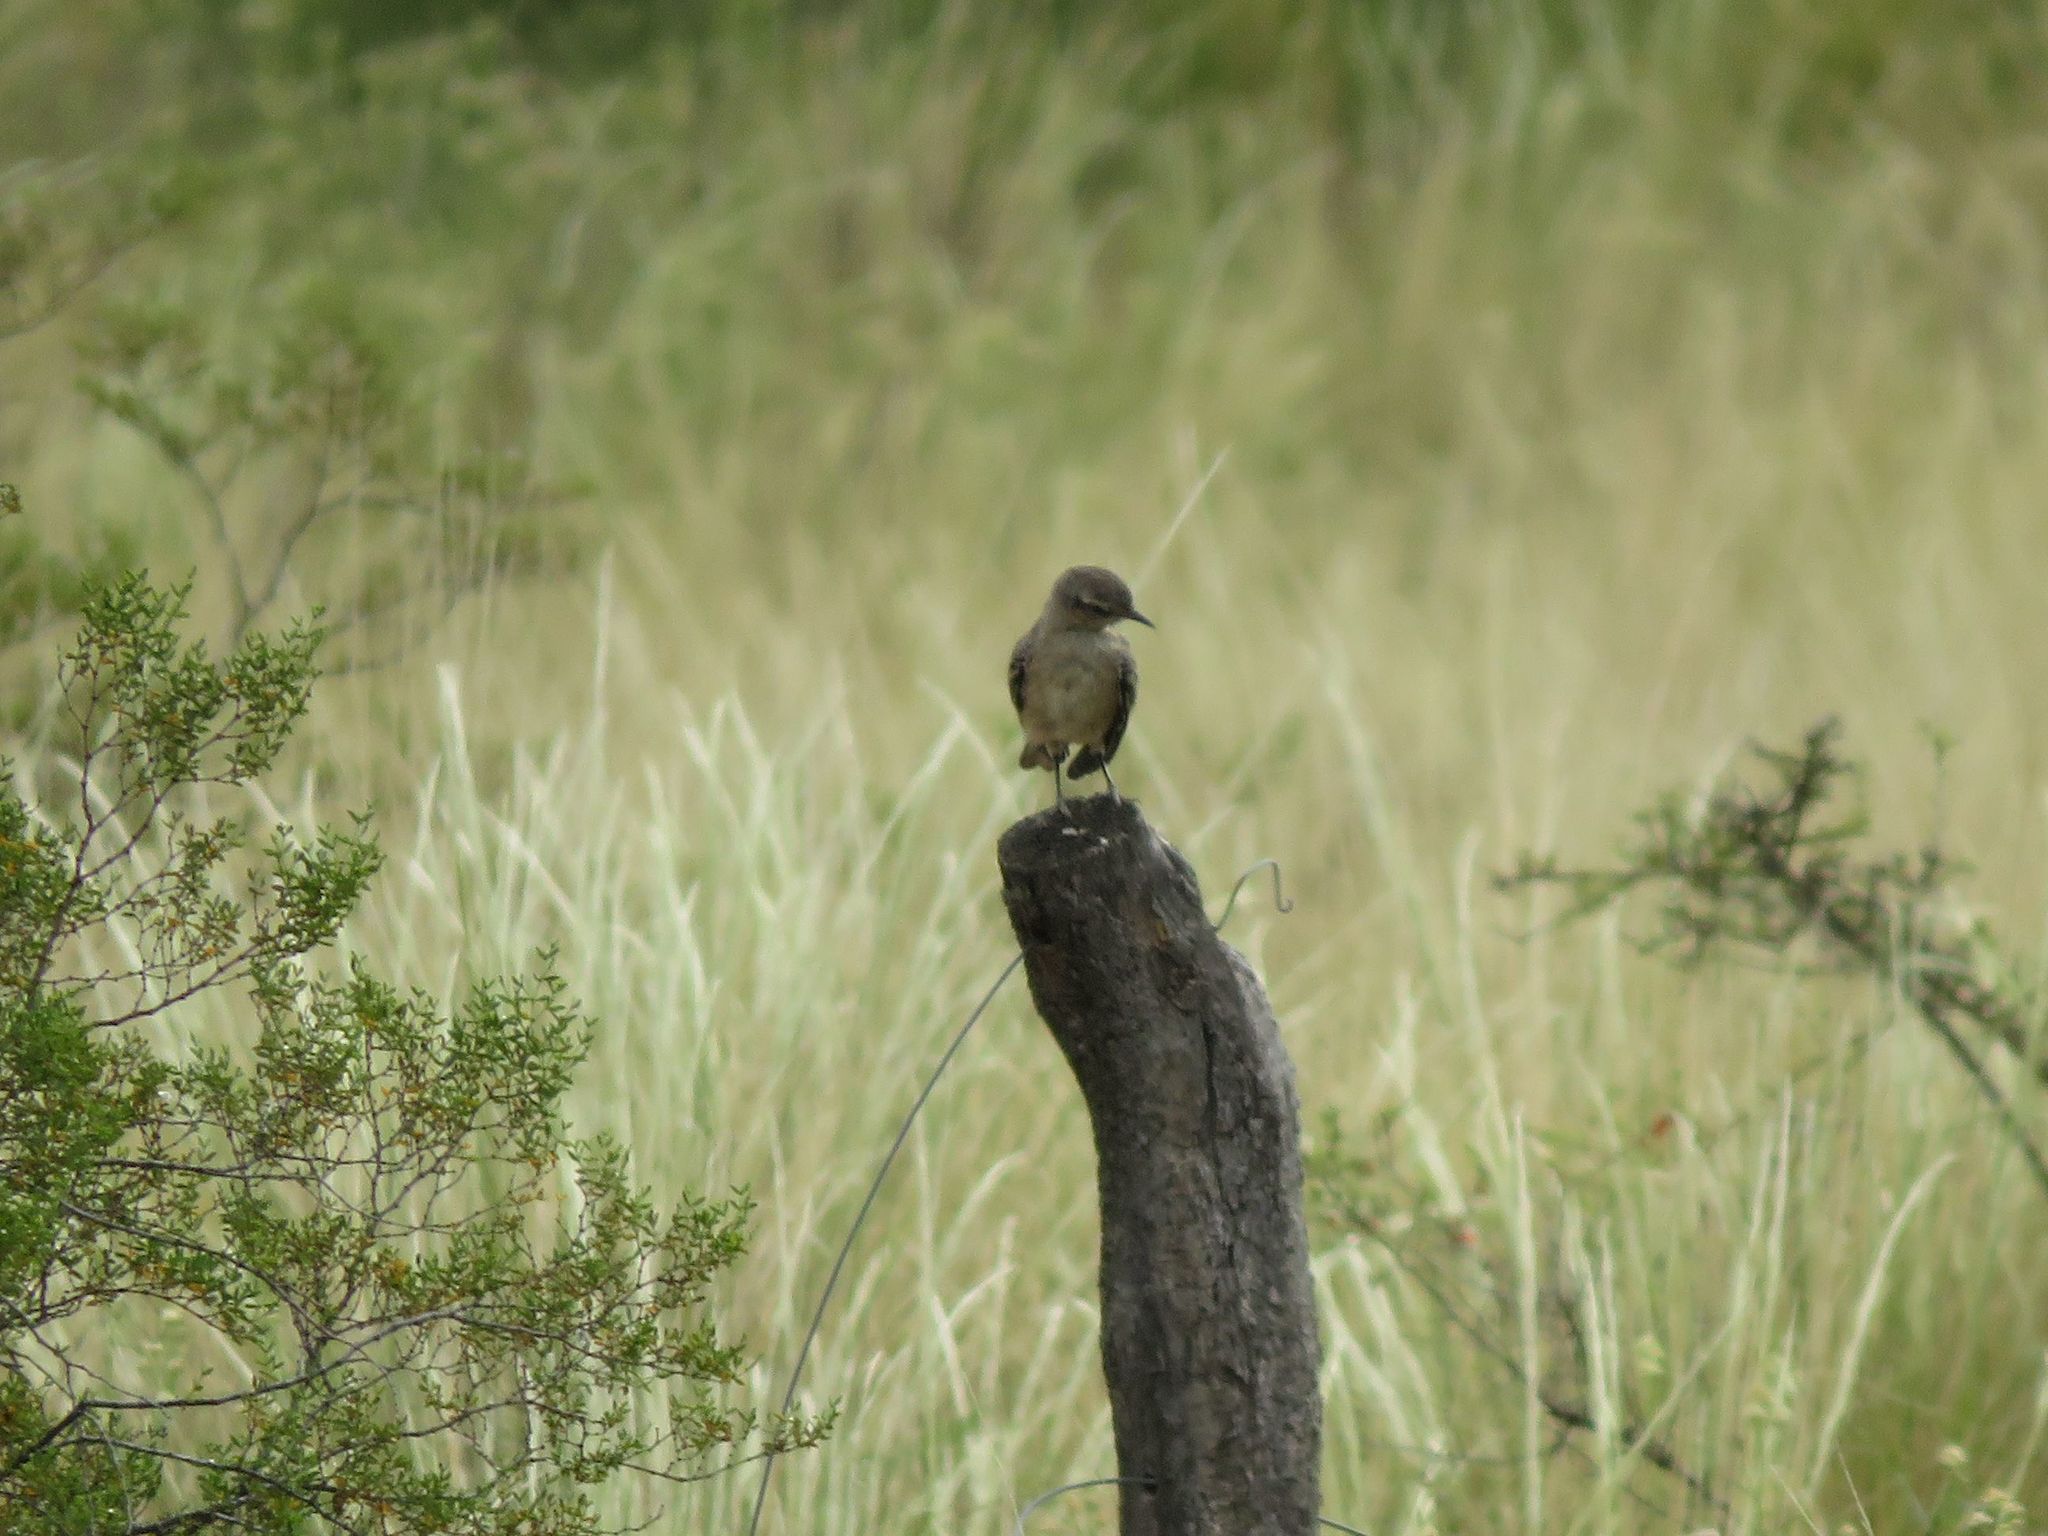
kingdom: Animalia
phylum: Chordata
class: Aves
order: Passeriformes
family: Mimidae
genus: Mimus
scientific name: Mimus patagonicus
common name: Patagonian mockingbird
